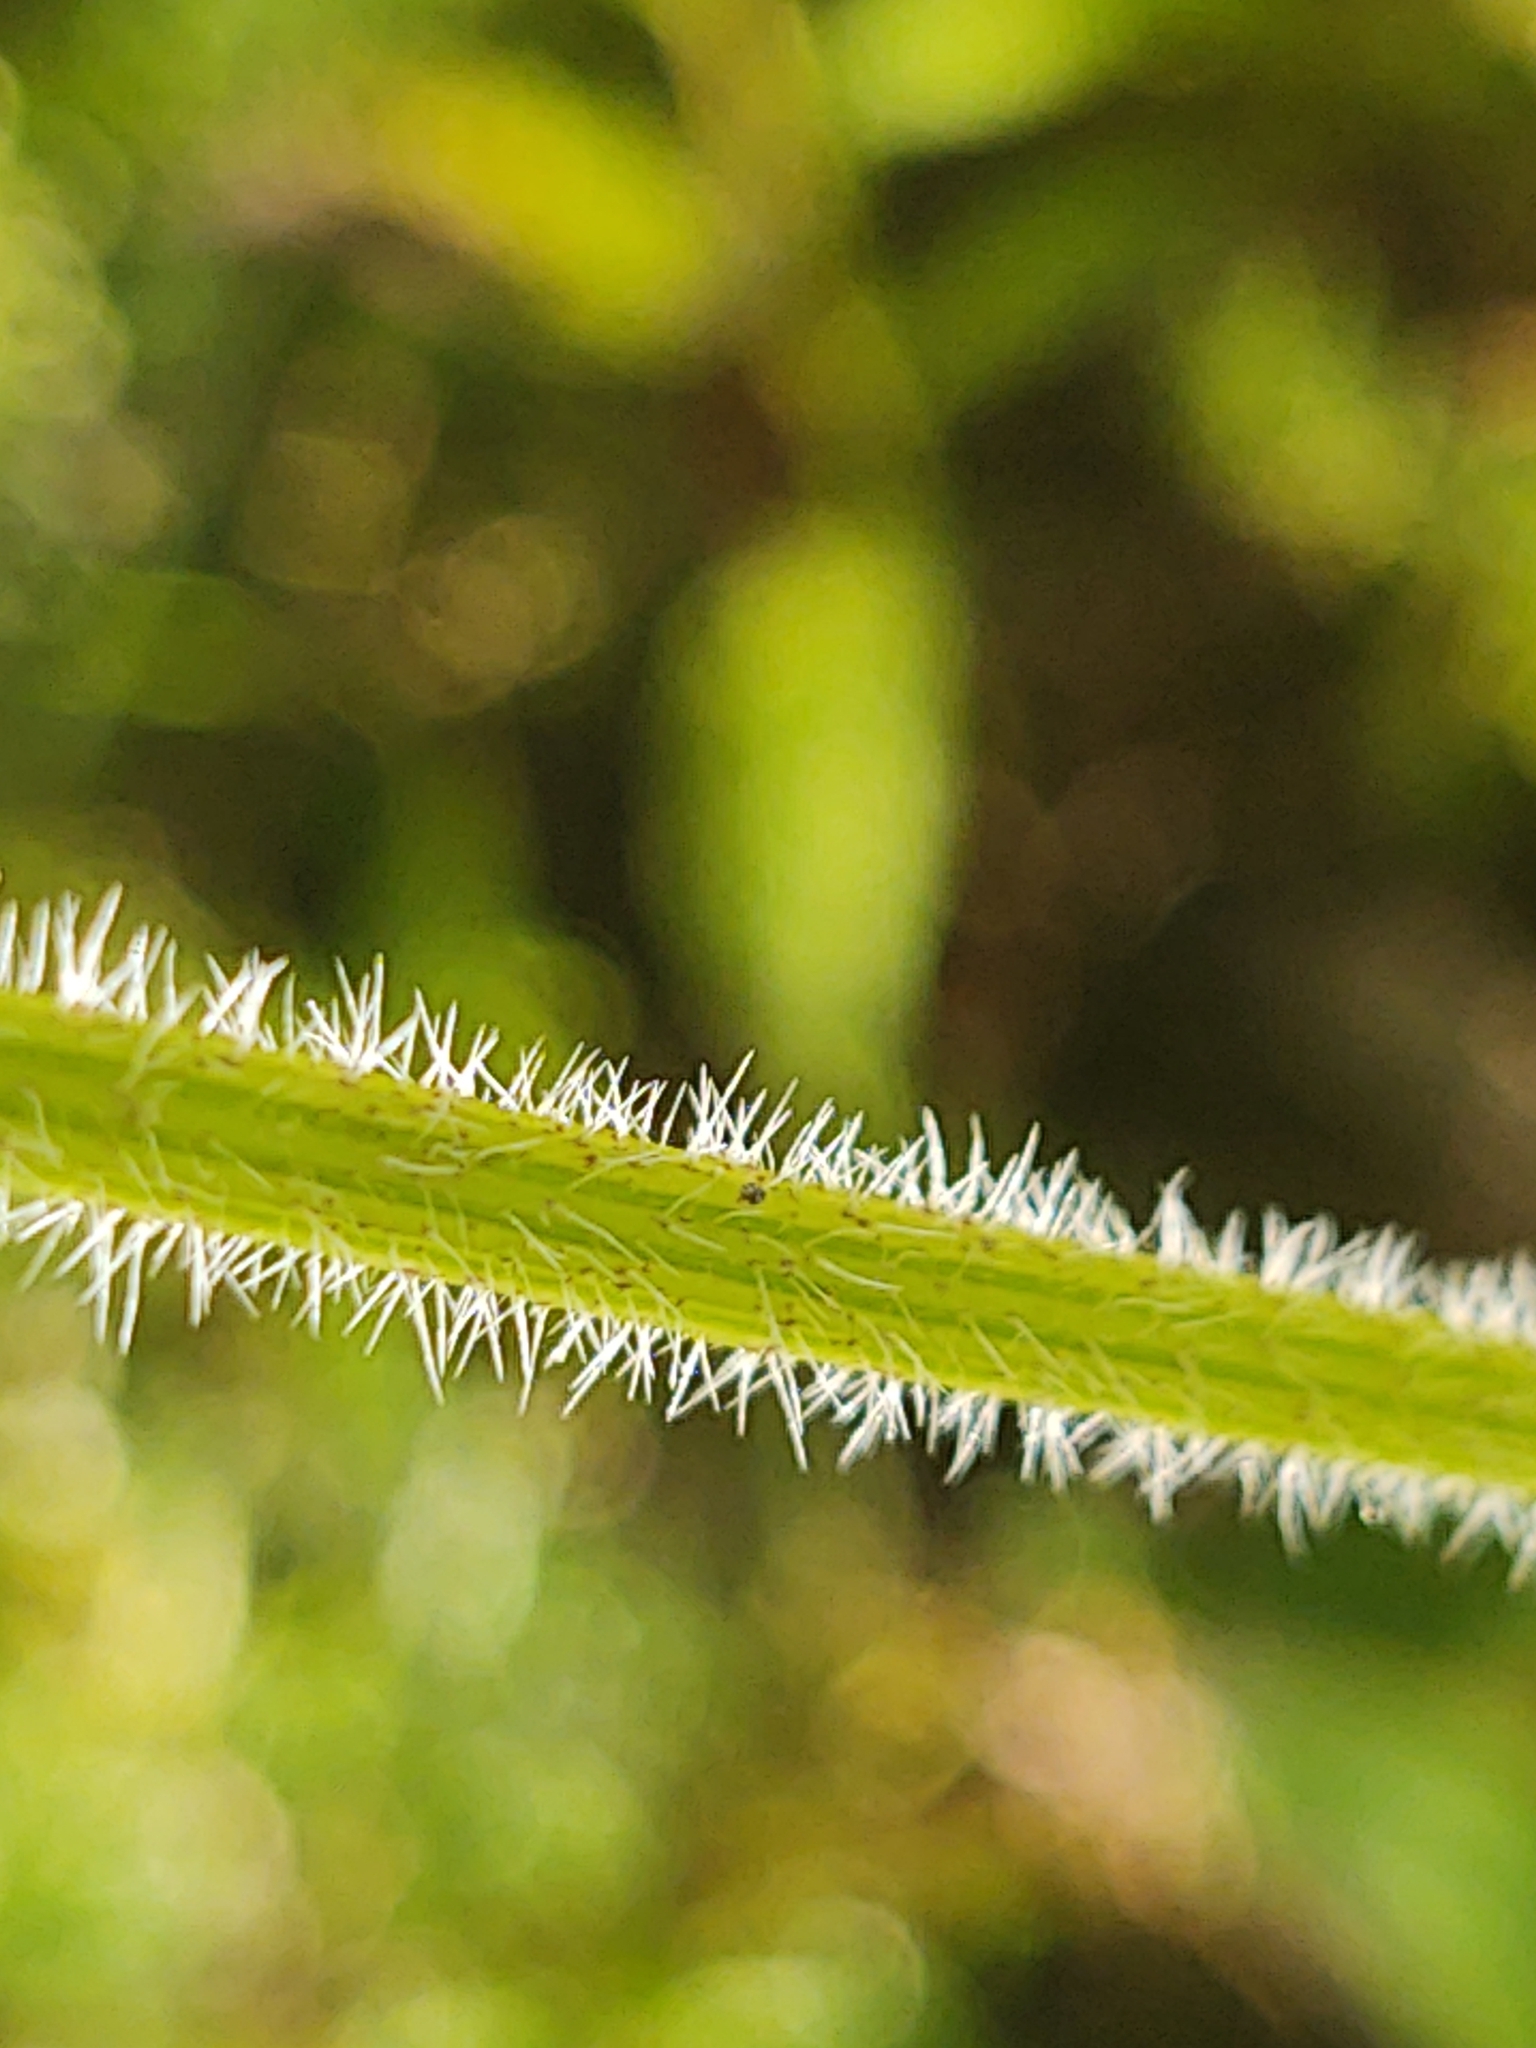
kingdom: Plantae
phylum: Tracheophyta
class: Magnoliopsida
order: Asterales
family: Asteraceae
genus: Rudbeckia
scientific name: Rudbeckia hirta
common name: Black-eyed-susan
